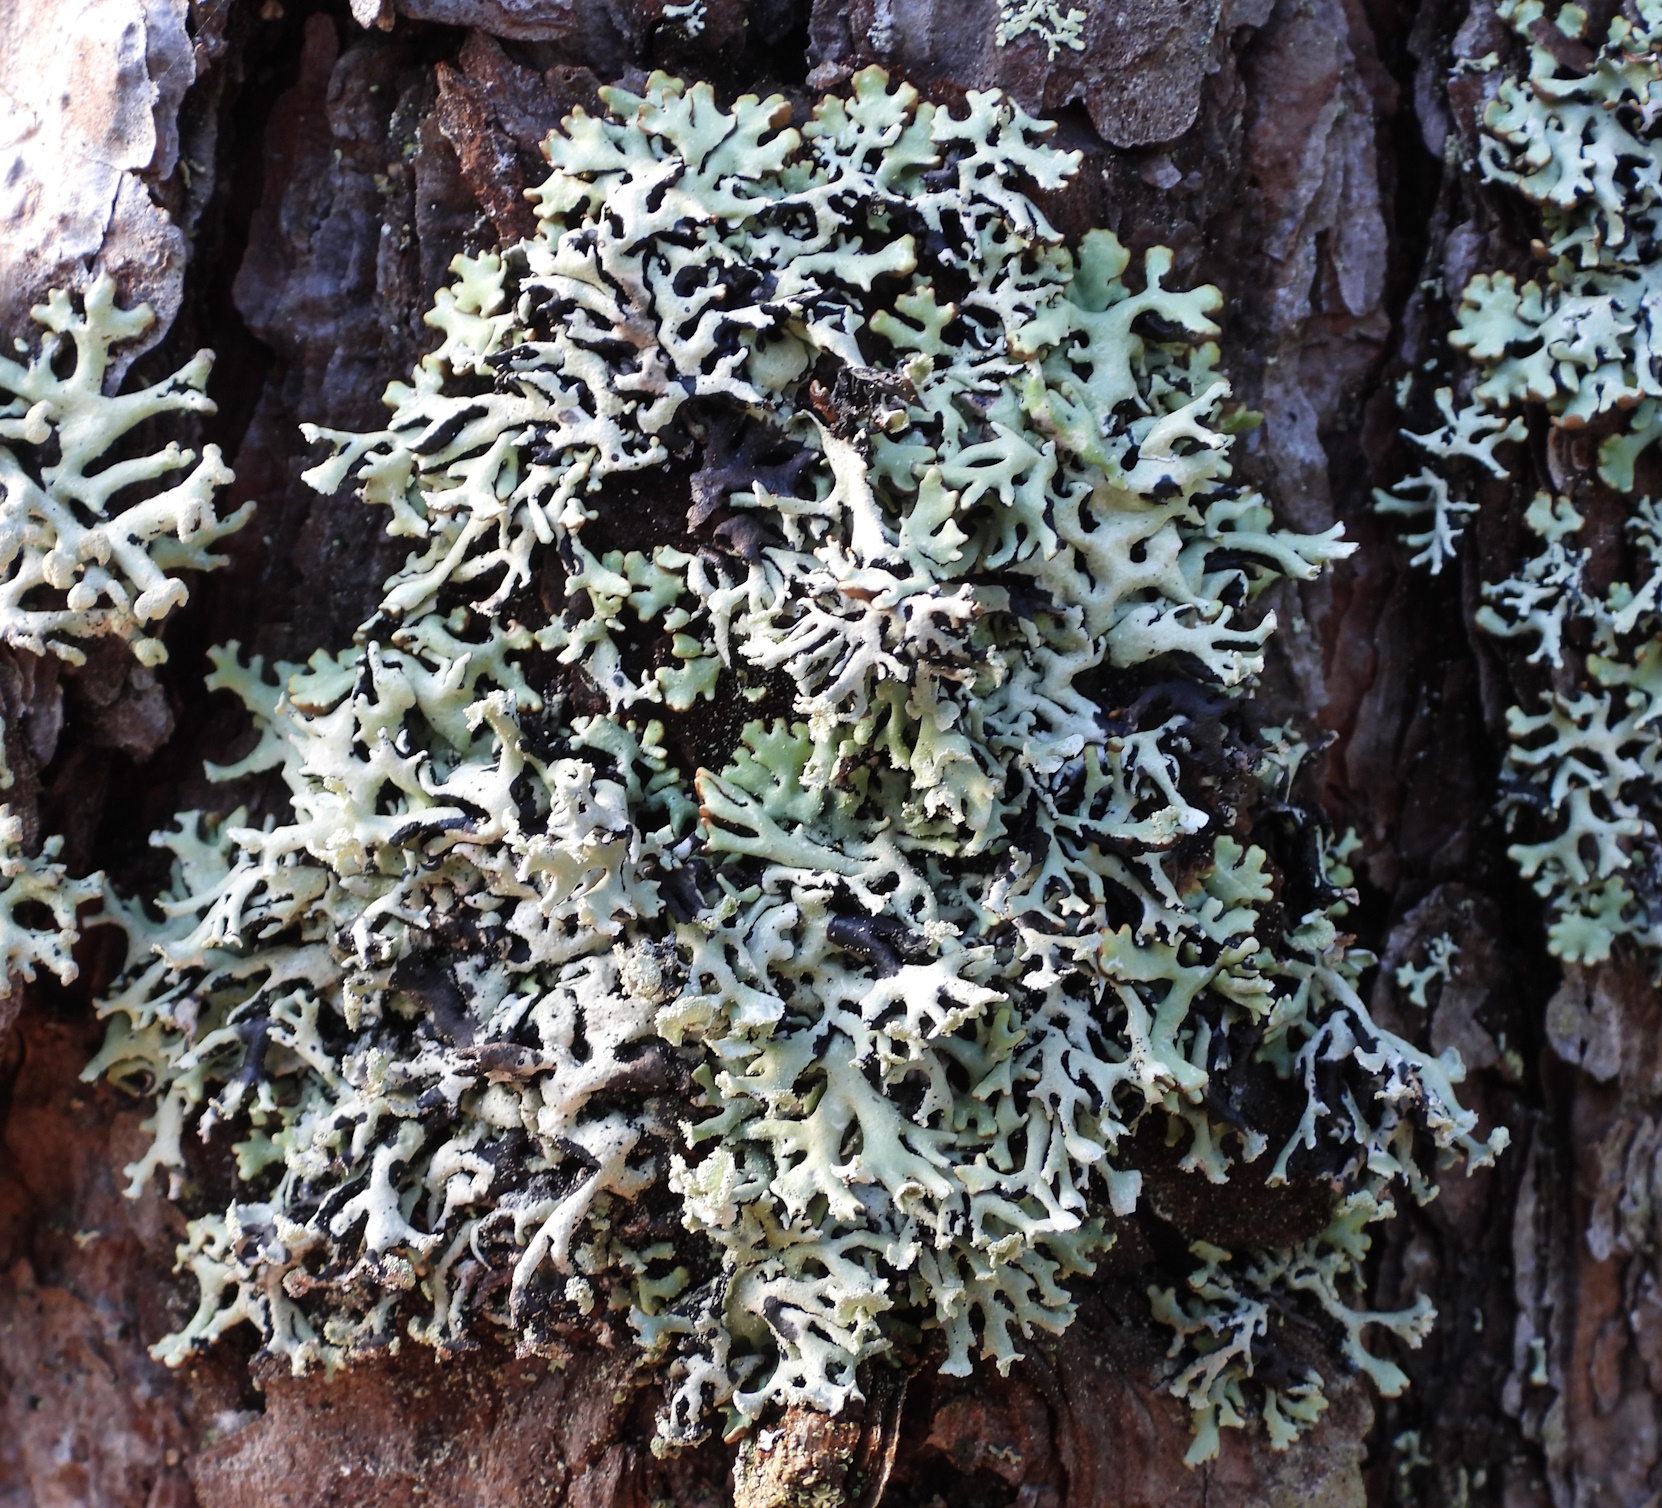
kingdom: Fungi
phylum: Ascomycota
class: Lecanoromycetes
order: Lecanorales
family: Parmeliaceae
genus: Hypogymnia
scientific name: Hypogymnia physodes
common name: Dark crottle
